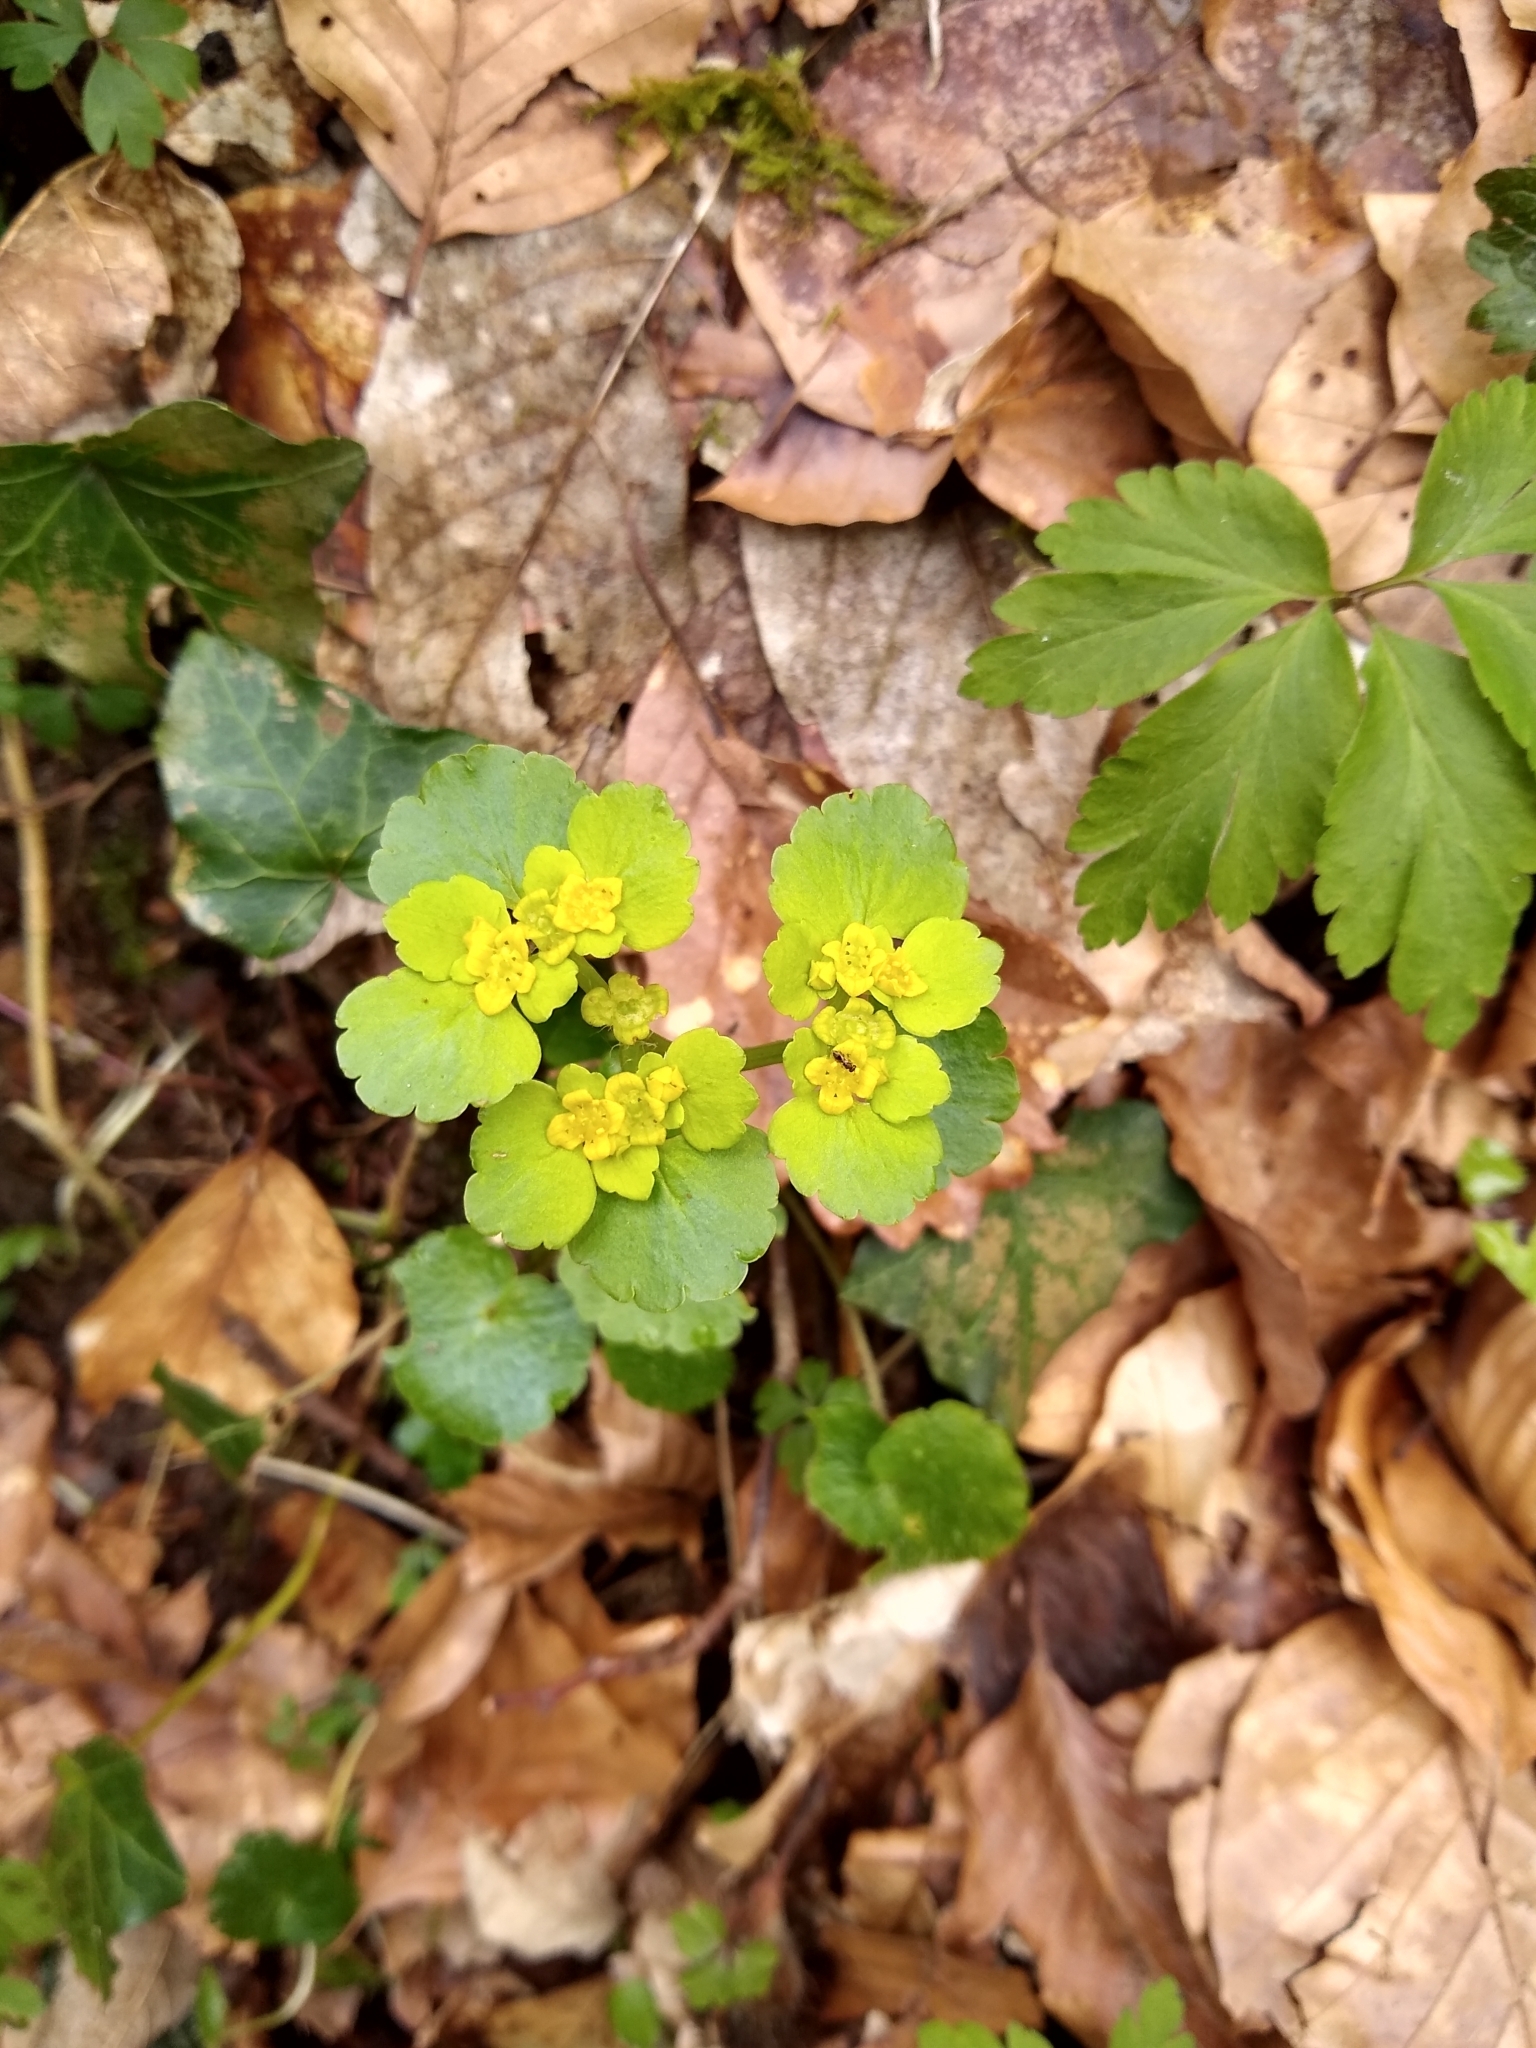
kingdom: Plantae
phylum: Tracheophyta
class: Magnoliopsida
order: Saxifragales
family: Saxifragaceae
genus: Chrysosplenium
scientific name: Chrysosplenium alternifolium
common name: Alternate-leaved golden-saxifrage
